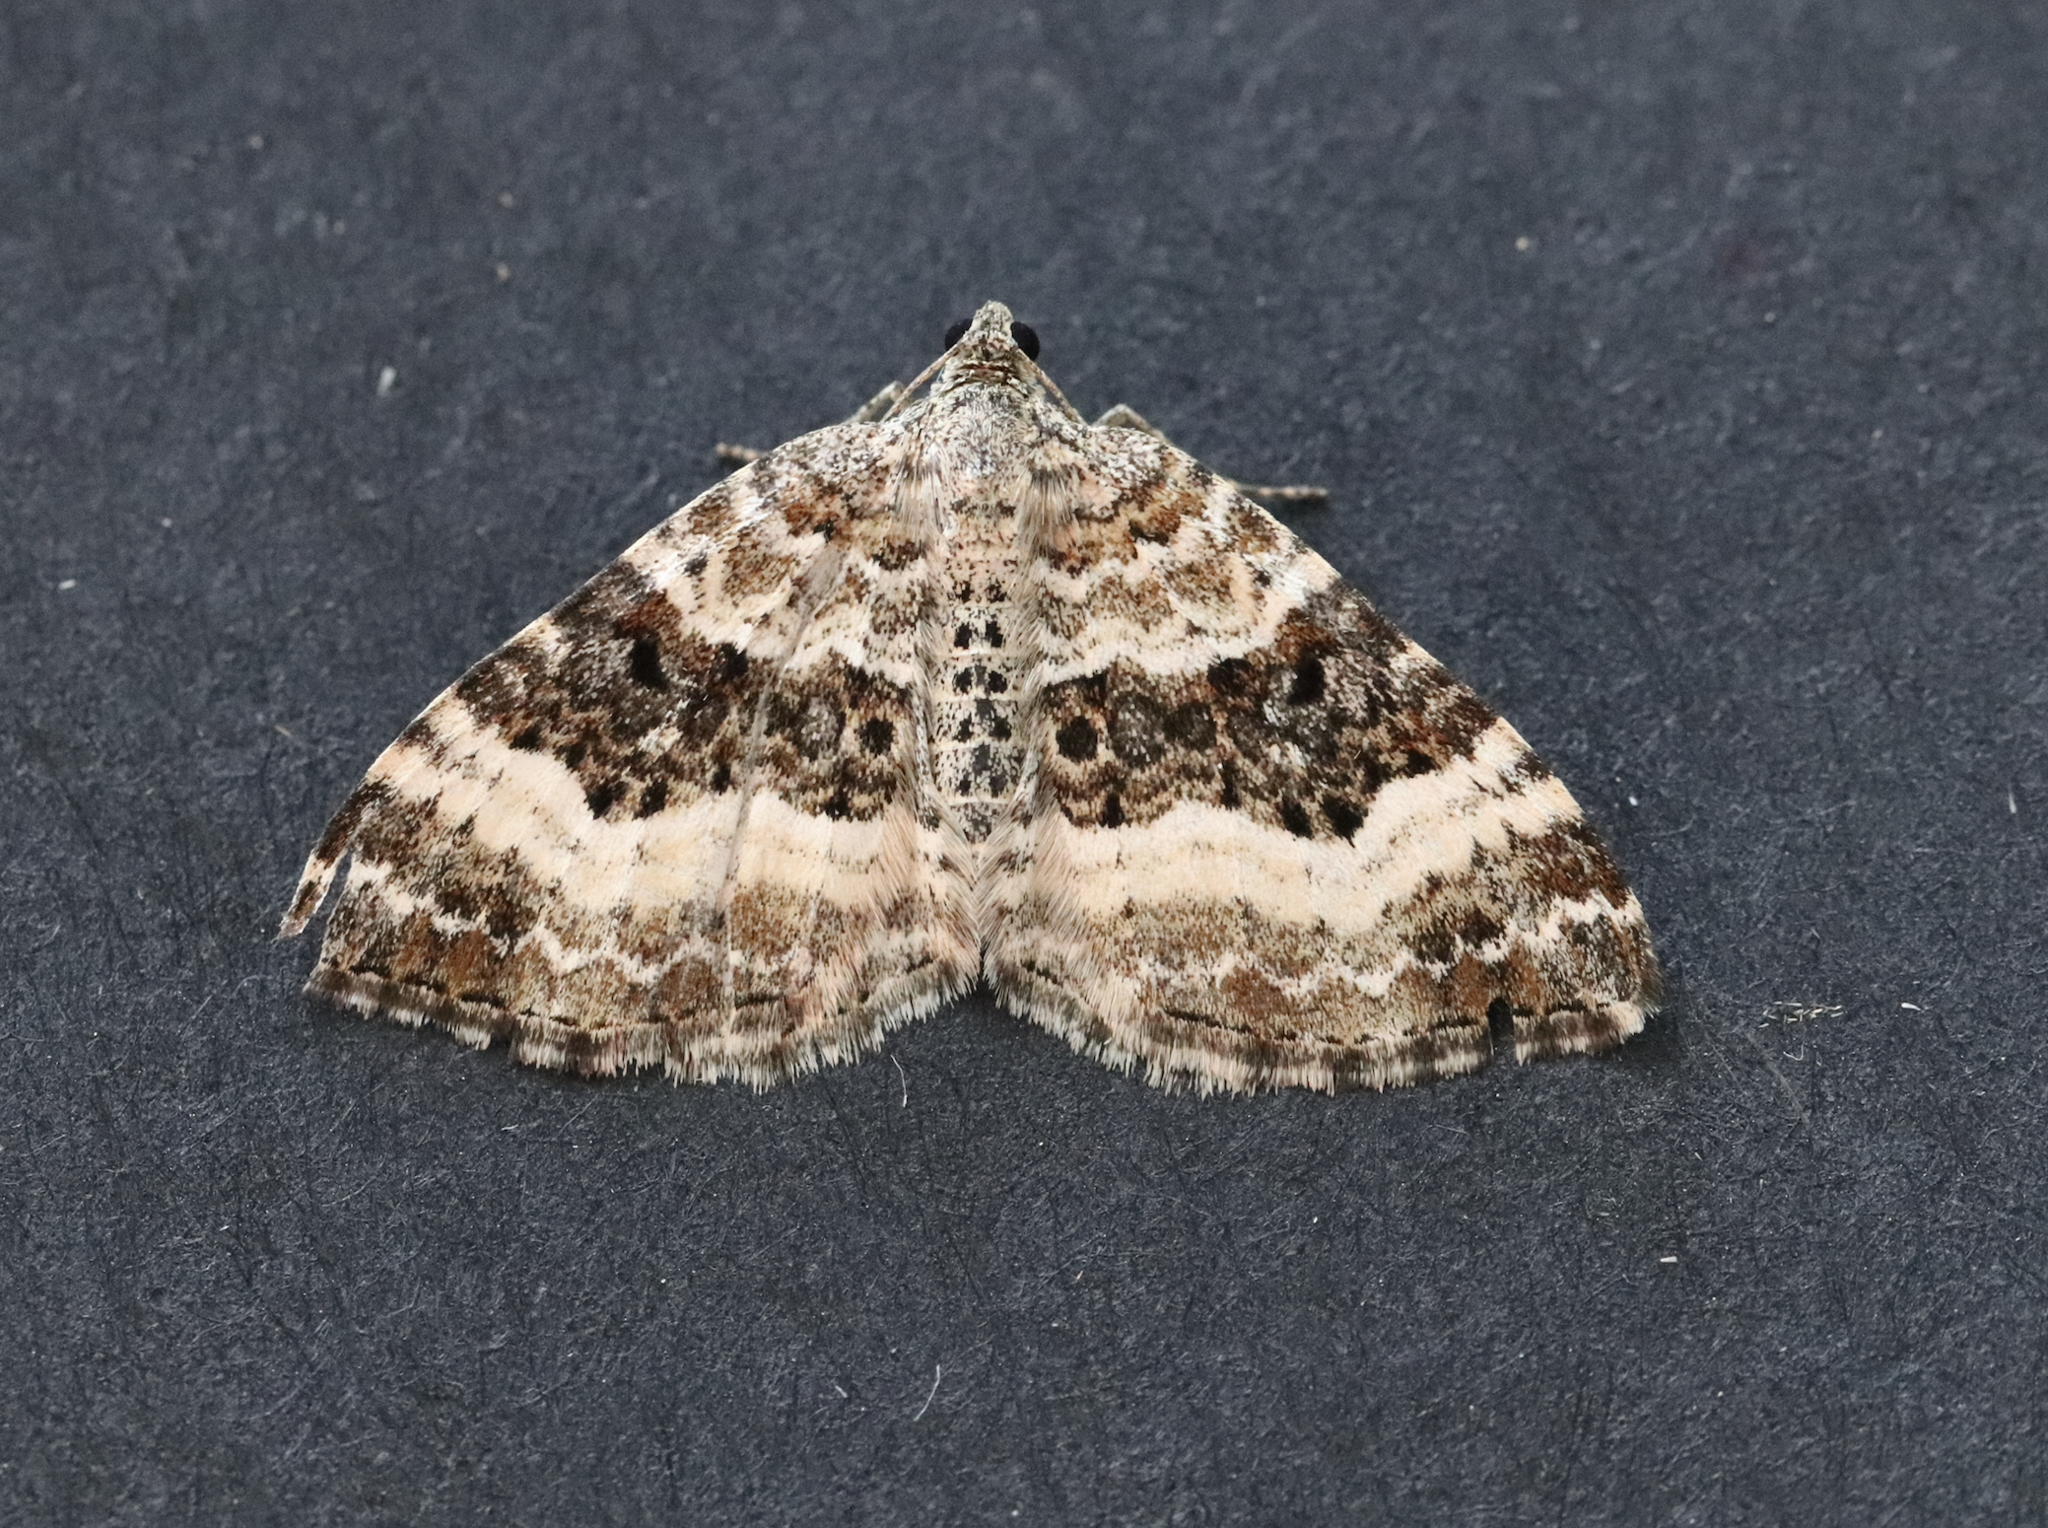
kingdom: Animalia
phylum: Arthropoda
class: Insecta
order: Lepidoptera
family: Geometridae
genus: Epirrhoe
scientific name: Epirrhoe alternata
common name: Common carpet
